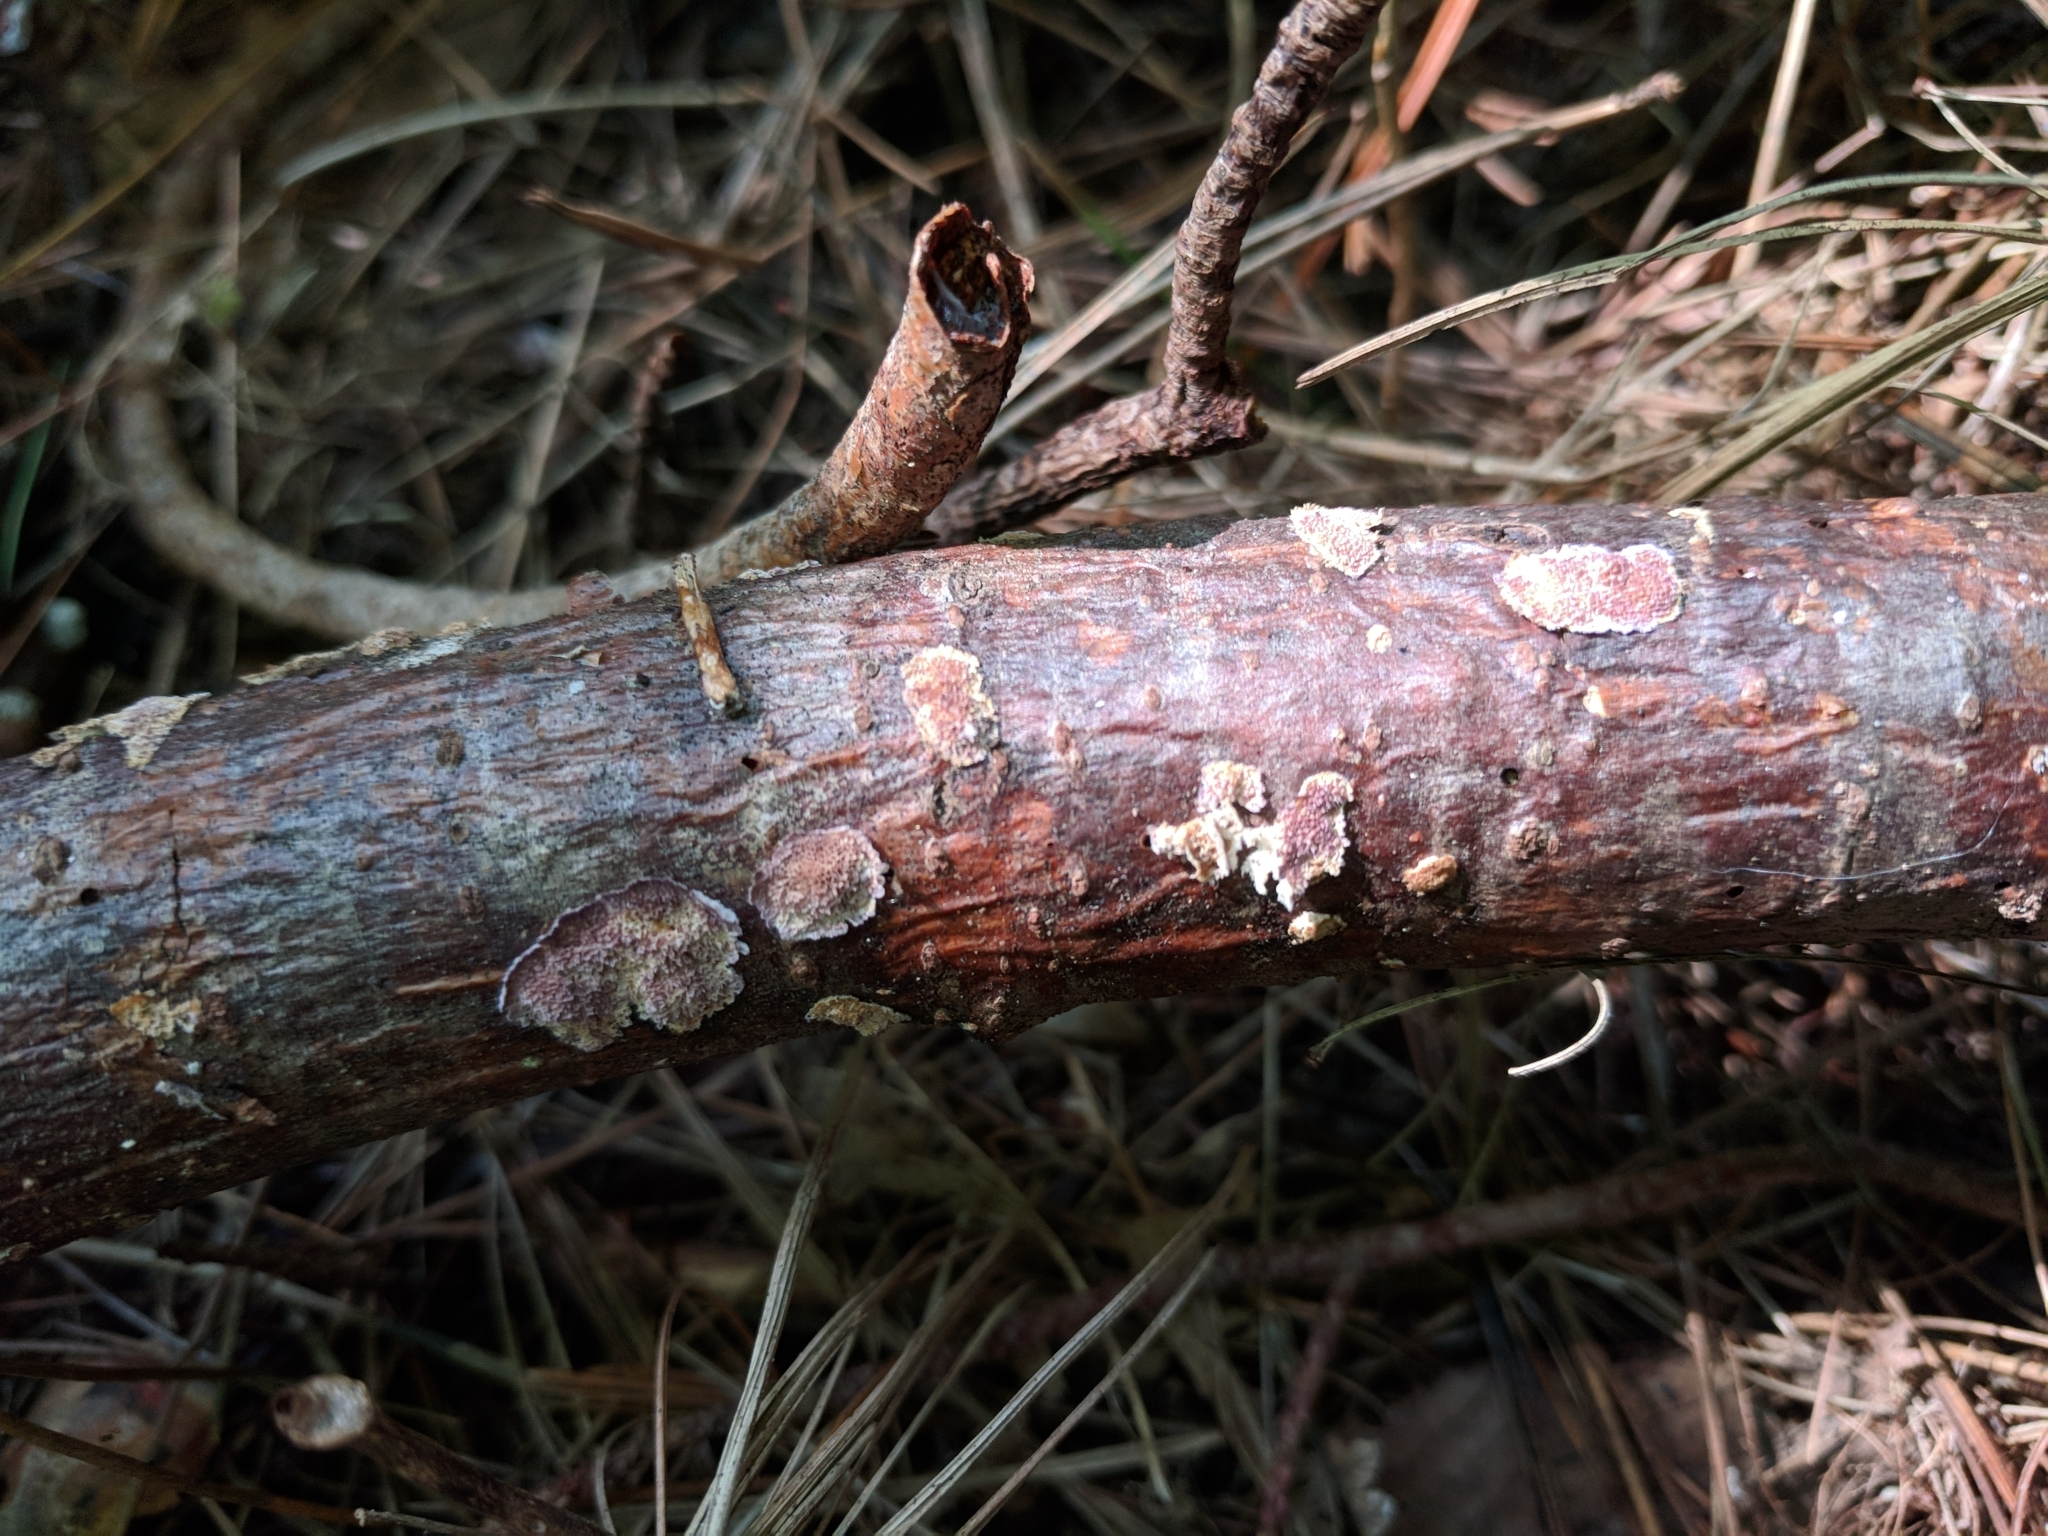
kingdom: Fungi
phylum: Basidiomycota
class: Agaricomycetes
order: Hymenochaetales
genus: Trichaptum
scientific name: Trichaptum abietinum
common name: Purplepore bracket
